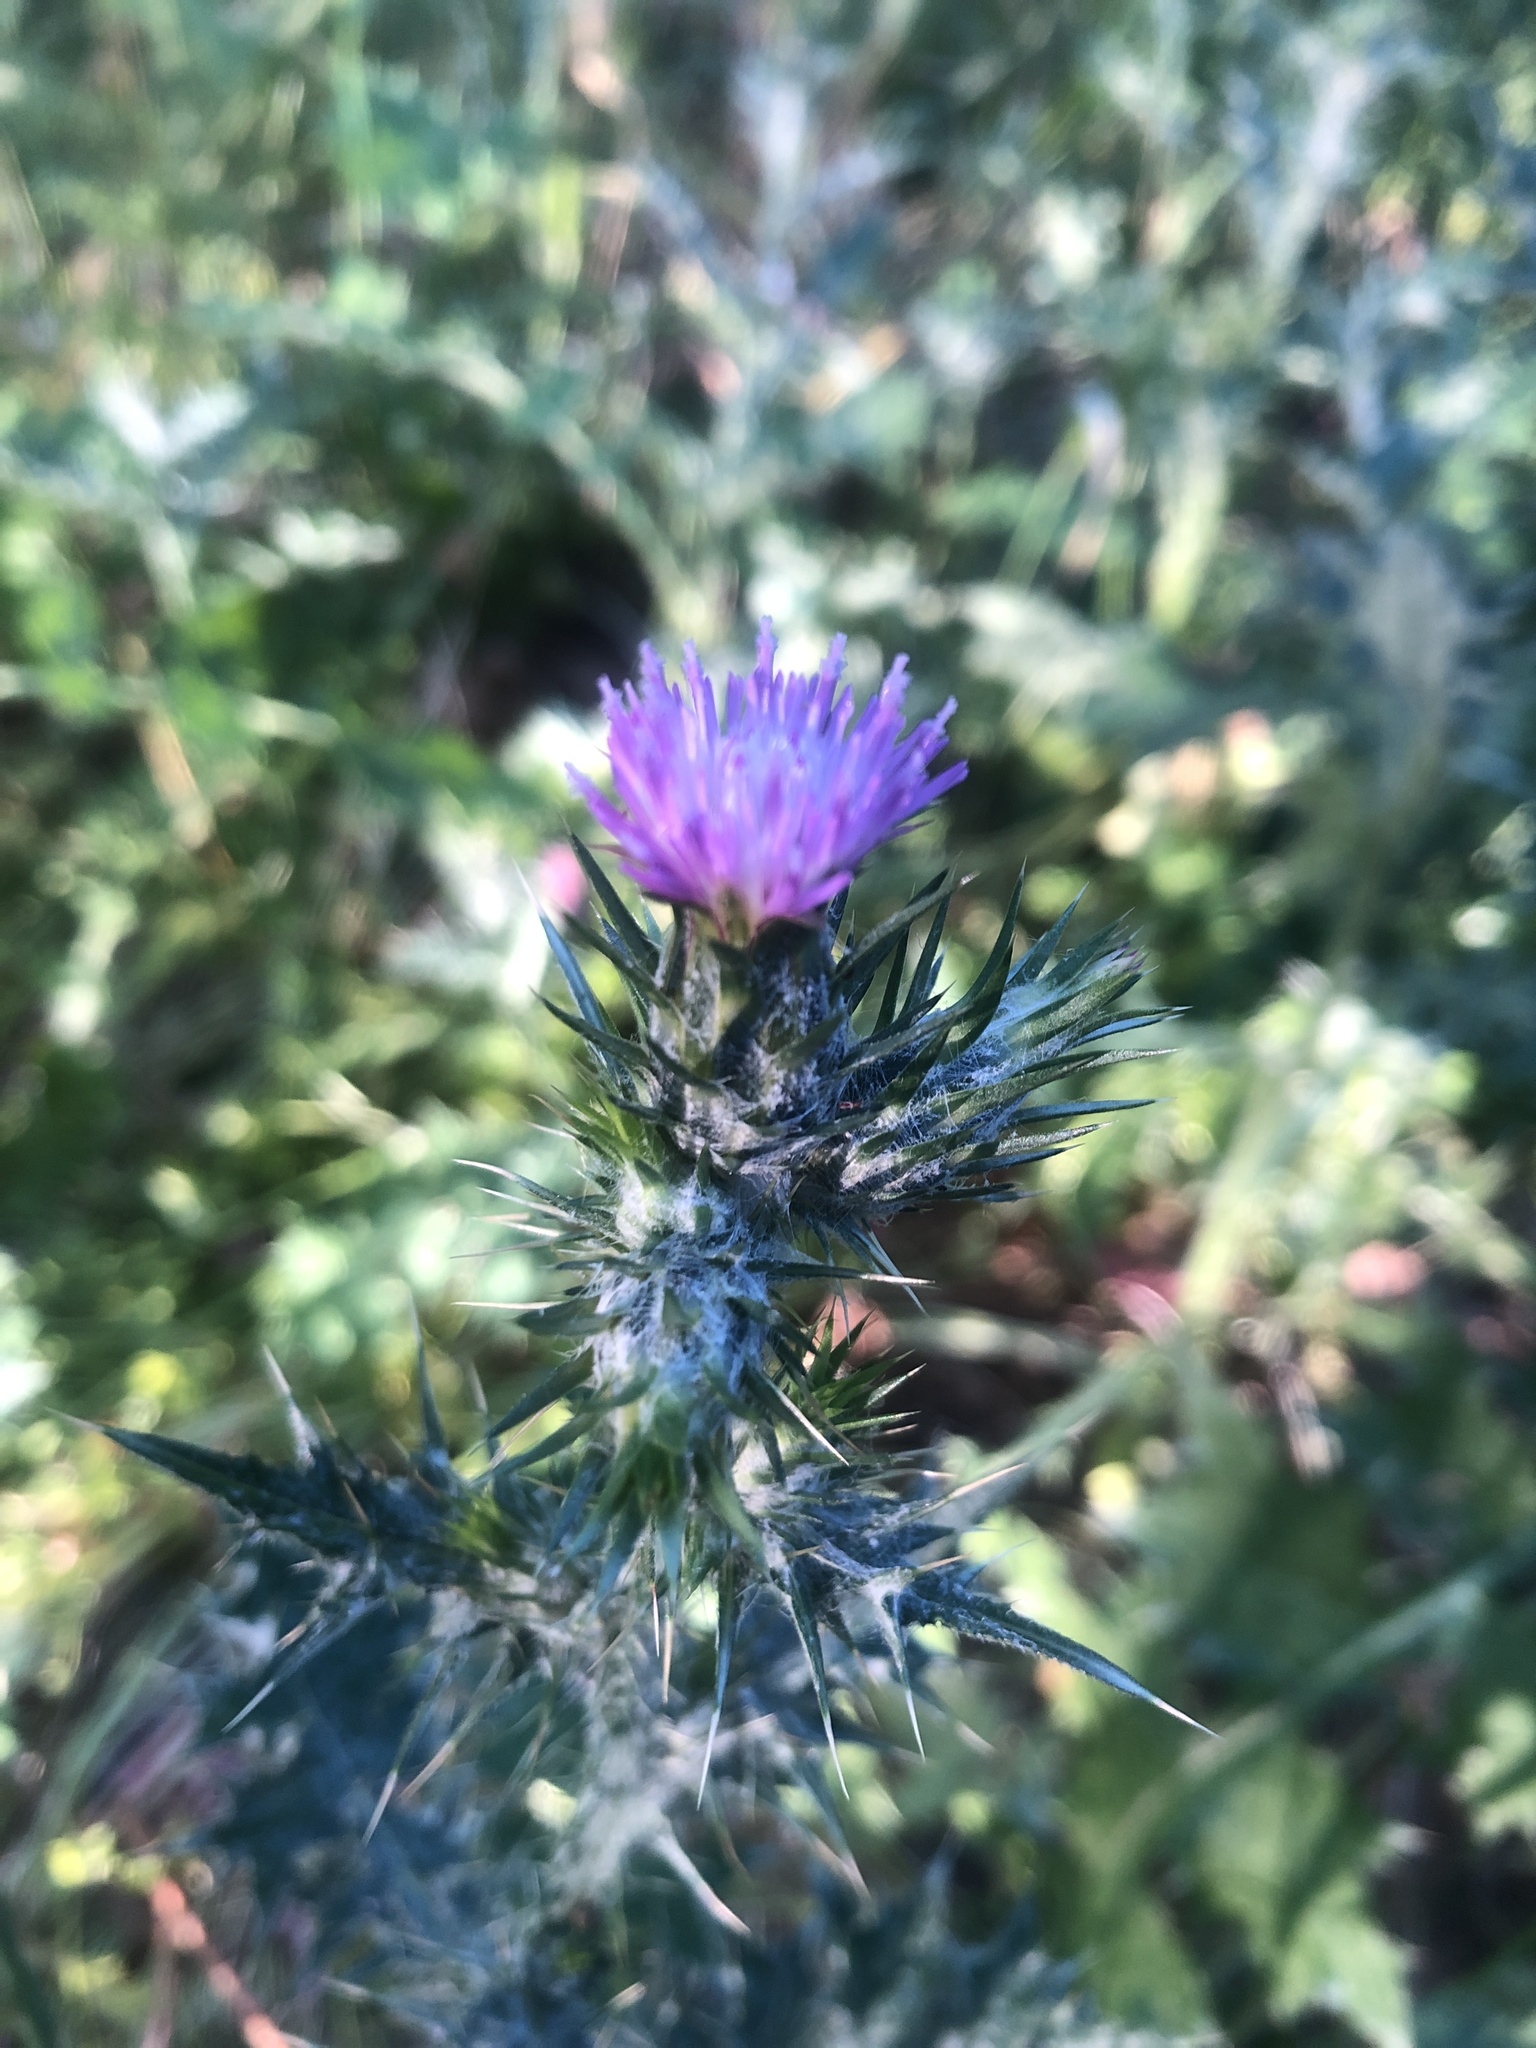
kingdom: Plantae
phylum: Tracheophyta
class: Magnoliopsida
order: Asterales
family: Asteraceae
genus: Carduus
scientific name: Carduus pycnocephalus
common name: Plymouth thistle
